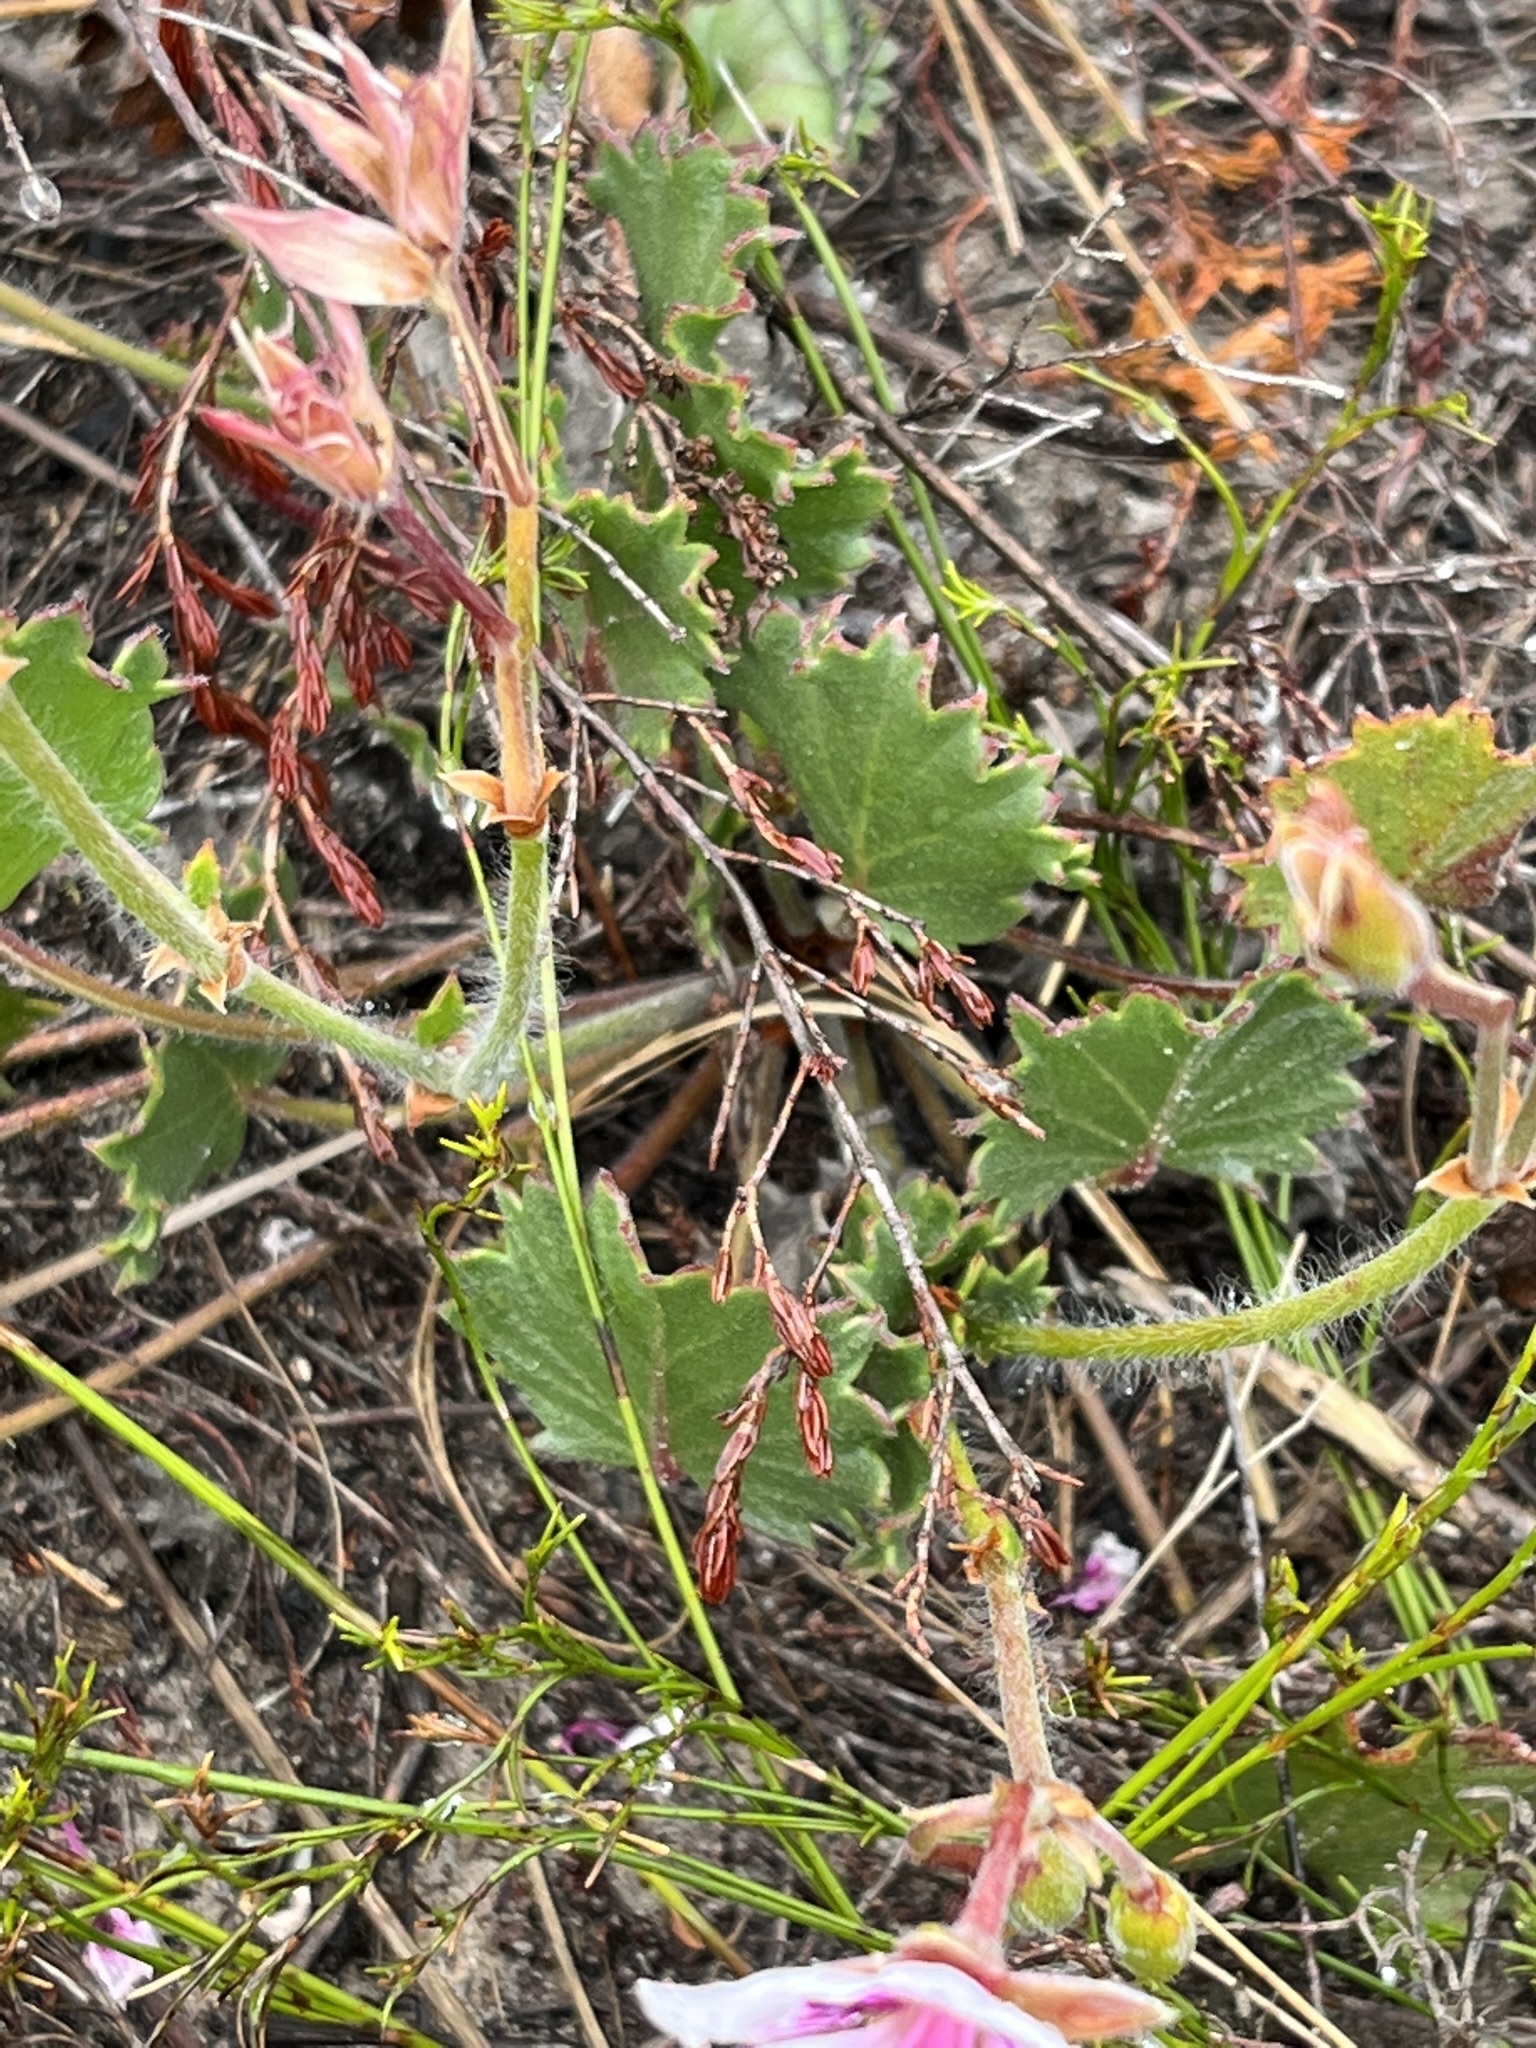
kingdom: Plantae
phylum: Tracheophyta
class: Magnoliopsida
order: Geraniales
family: Geraniaceae
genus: Pelargonium
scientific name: Pelargonium elegans
